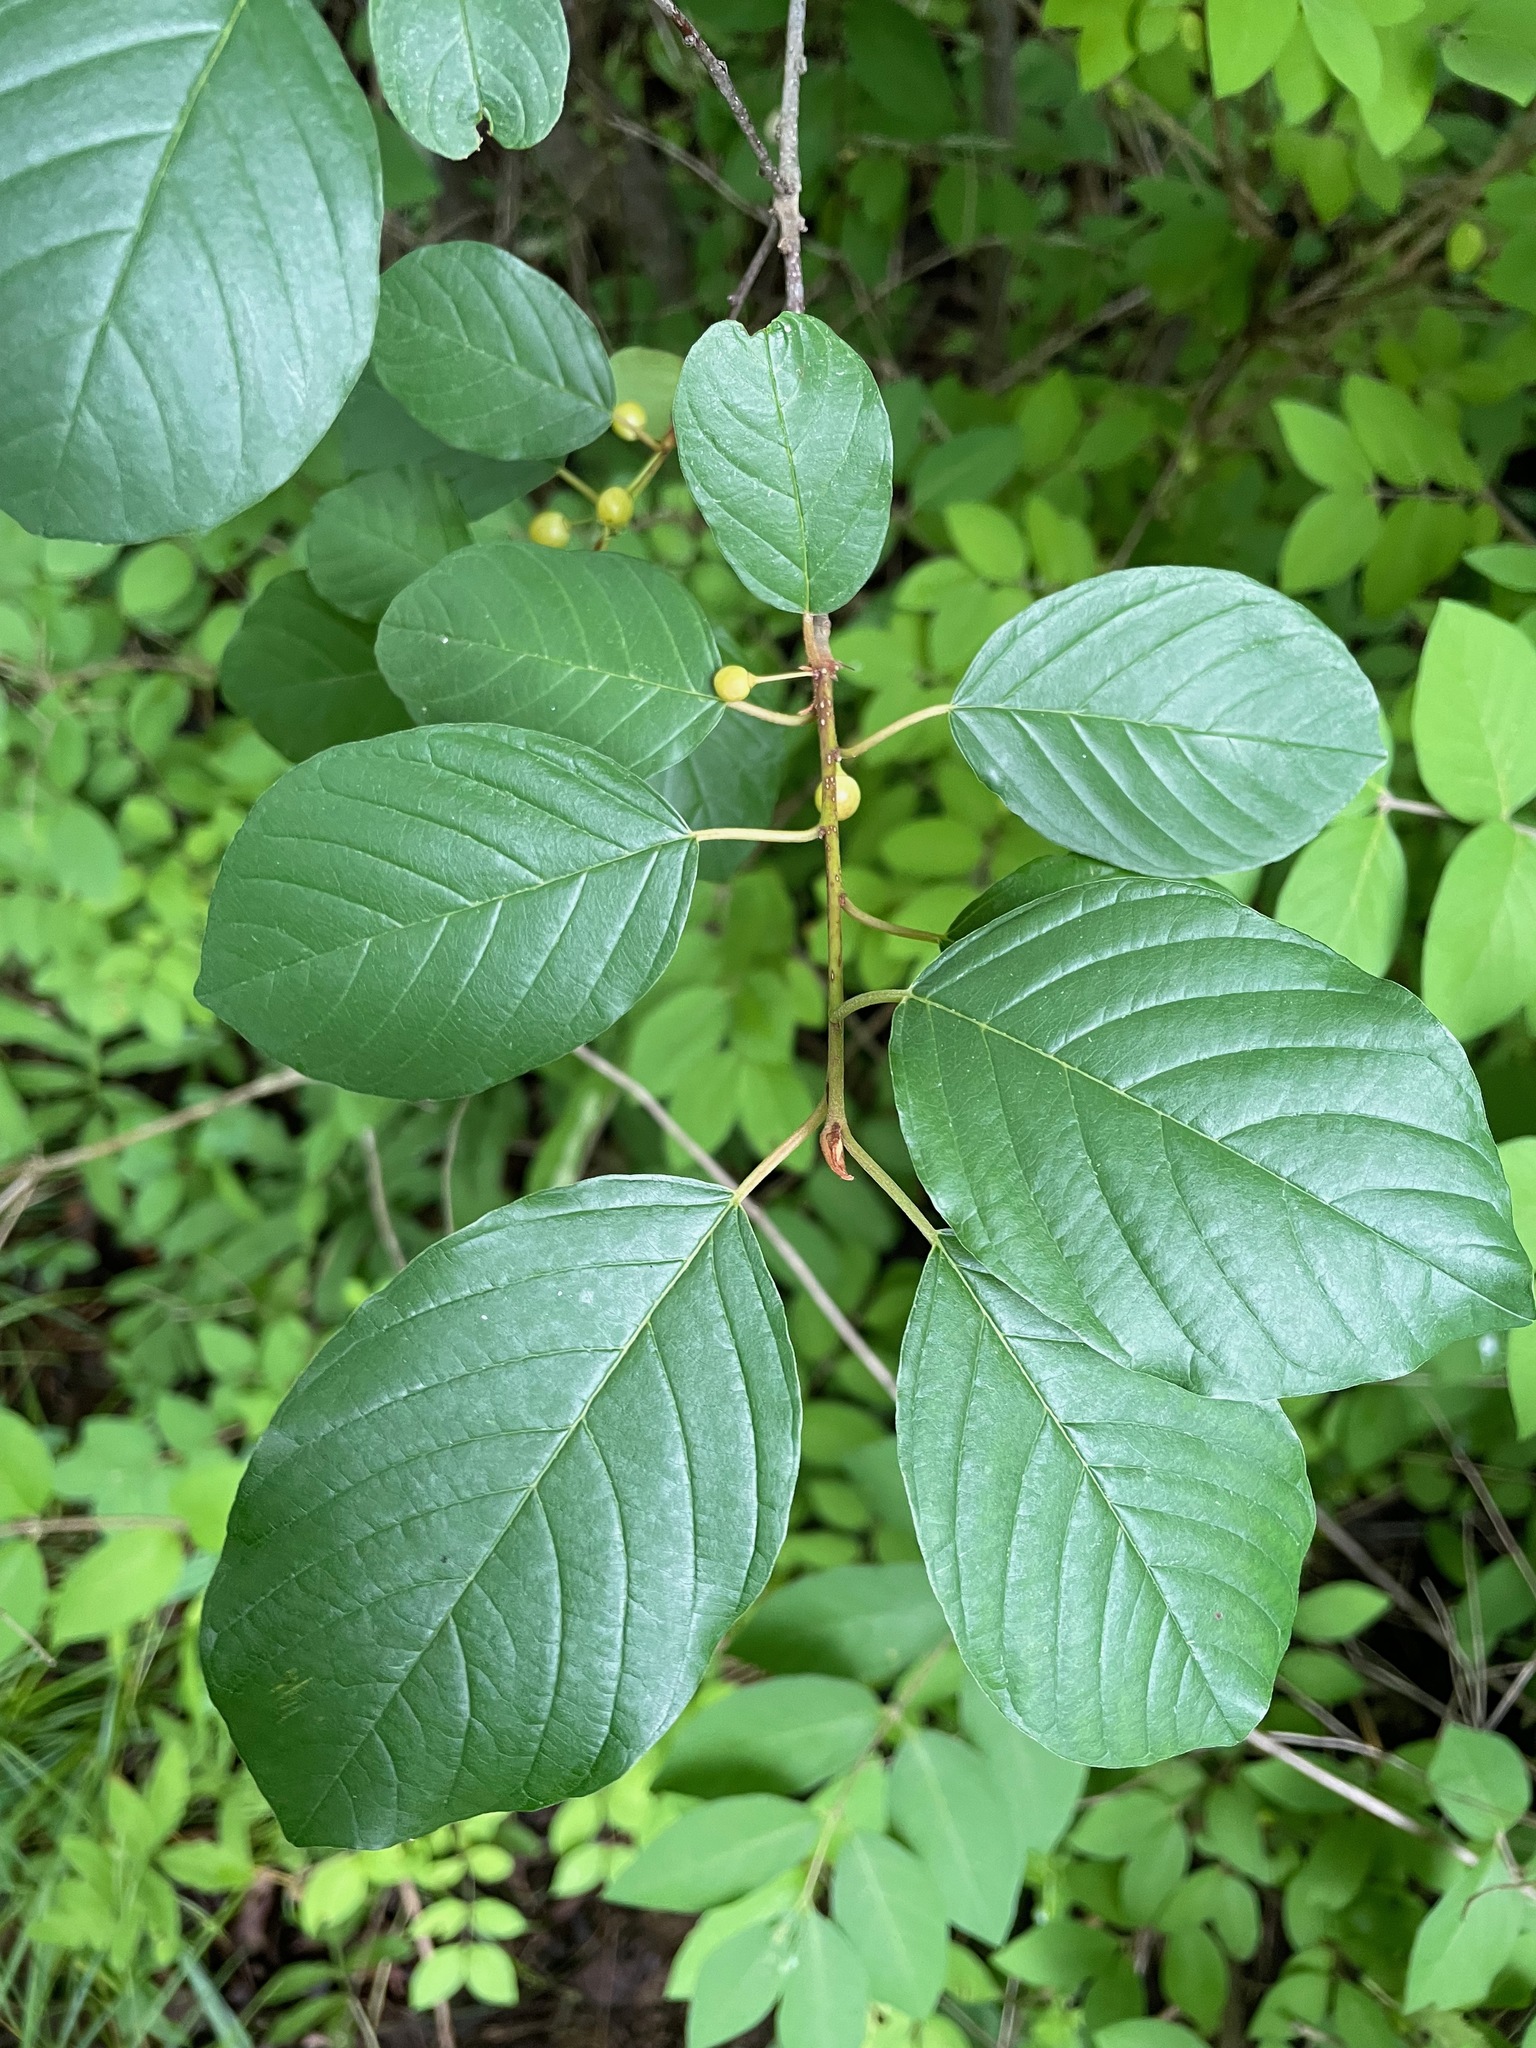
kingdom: Plantae
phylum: Tracheophyta
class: Magnoliopsida
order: Rosales
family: Rhamnaceae
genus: Frangula
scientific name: Frangula alnus
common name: Alder buckthorn
